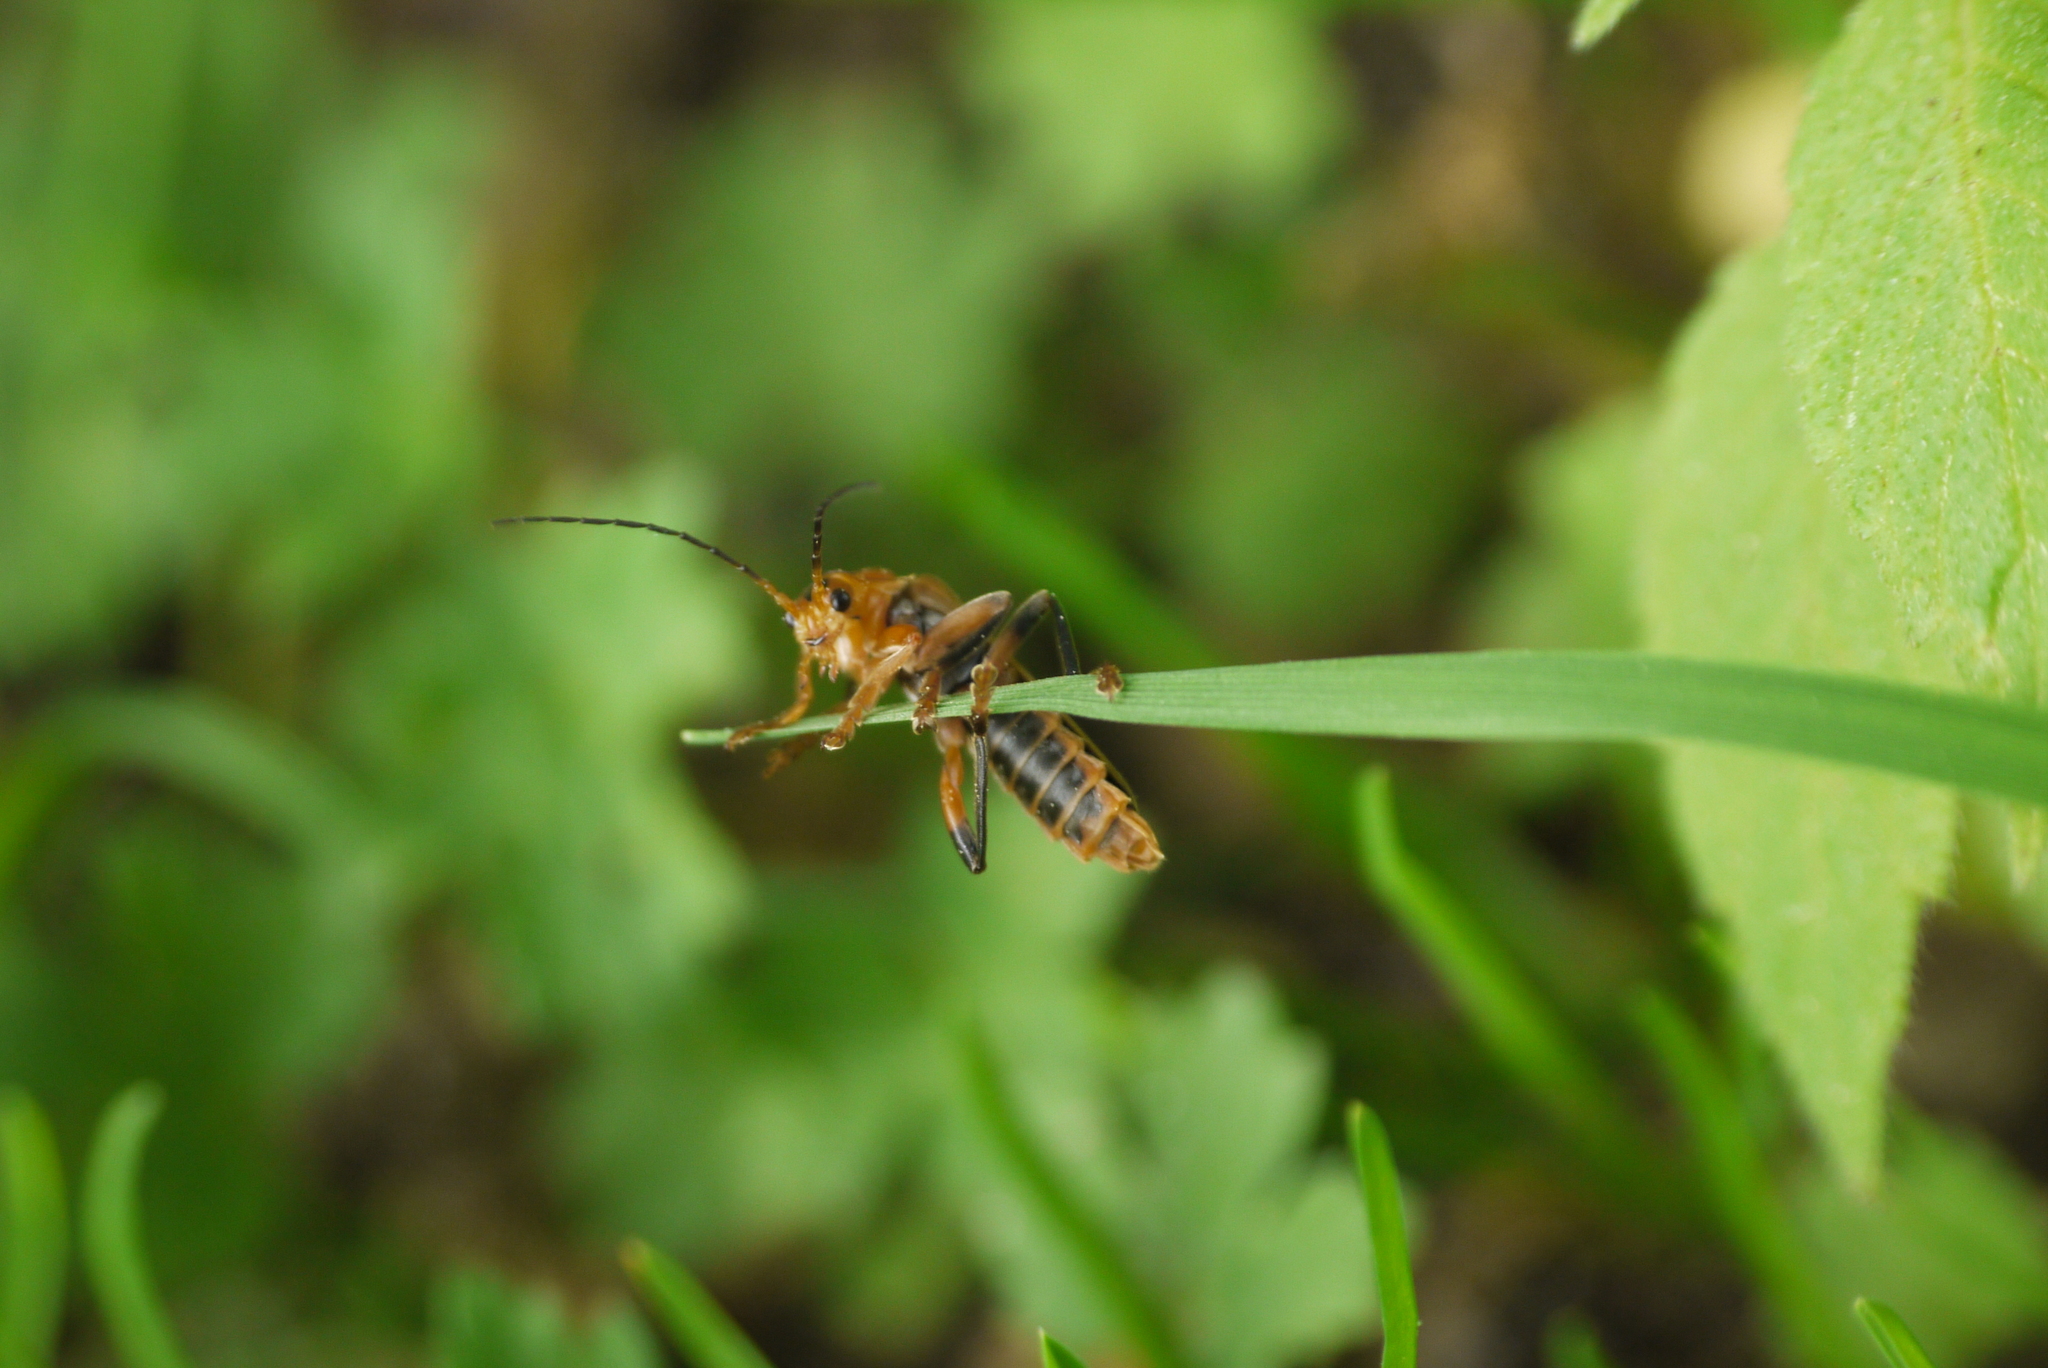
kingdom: Animalia
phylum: Arthropoda
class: Insecta
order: Coleoptera
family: Cantharidae
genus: Cantharis
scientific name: Cantharis livida
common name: Livid soldier beetle
